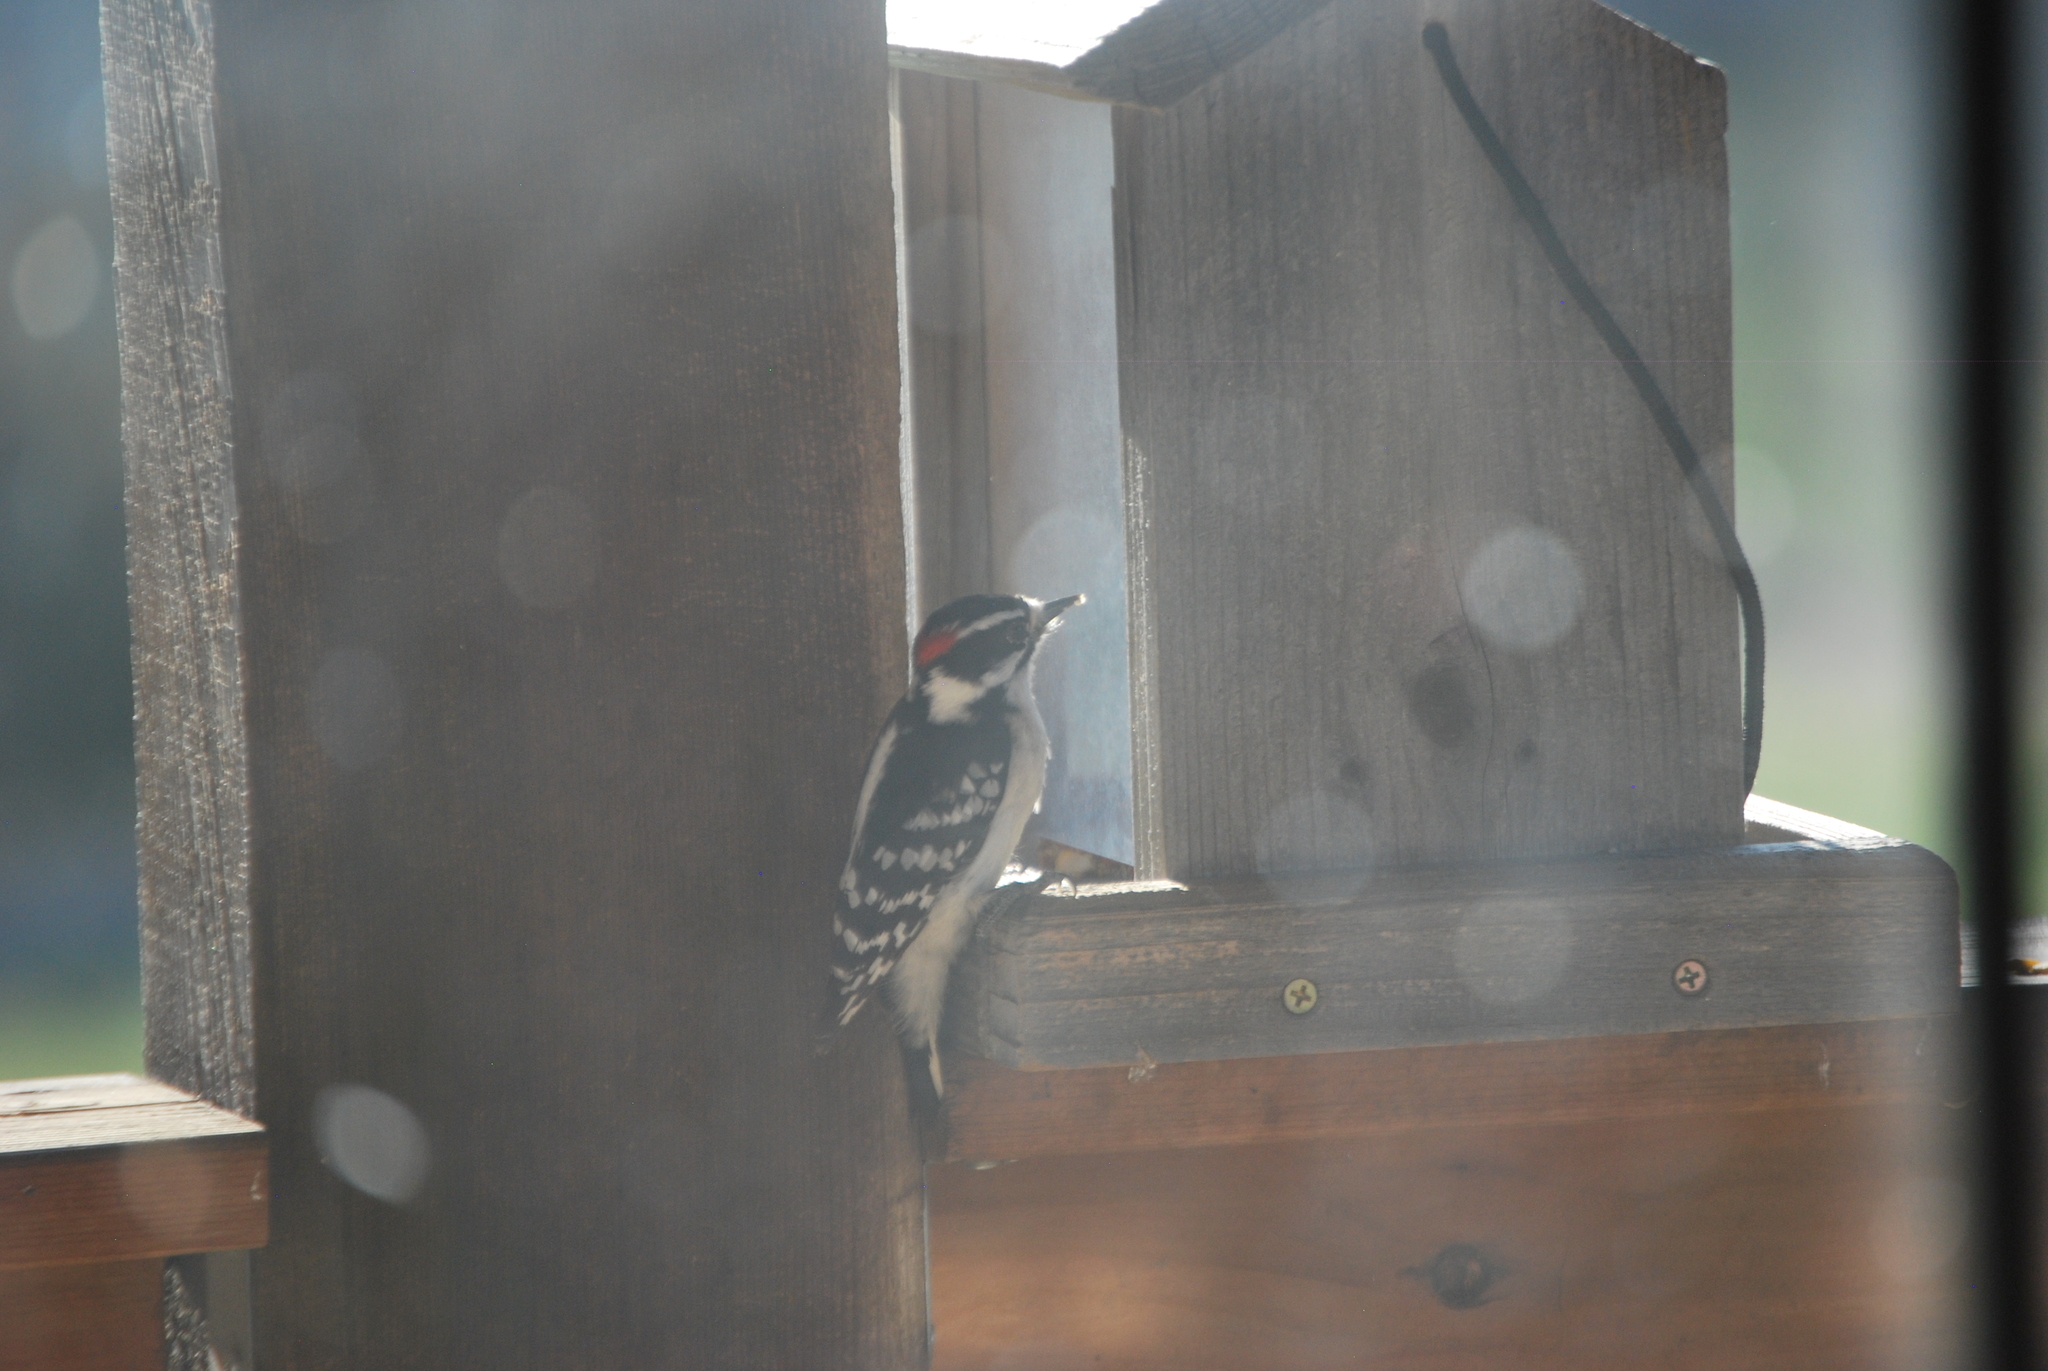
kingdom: Animalia
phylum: Chordata
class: Aves
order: Piciformes
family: Picidae
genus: Dryobates
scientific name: Dryobates pubescens
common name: Downy woodpecker
